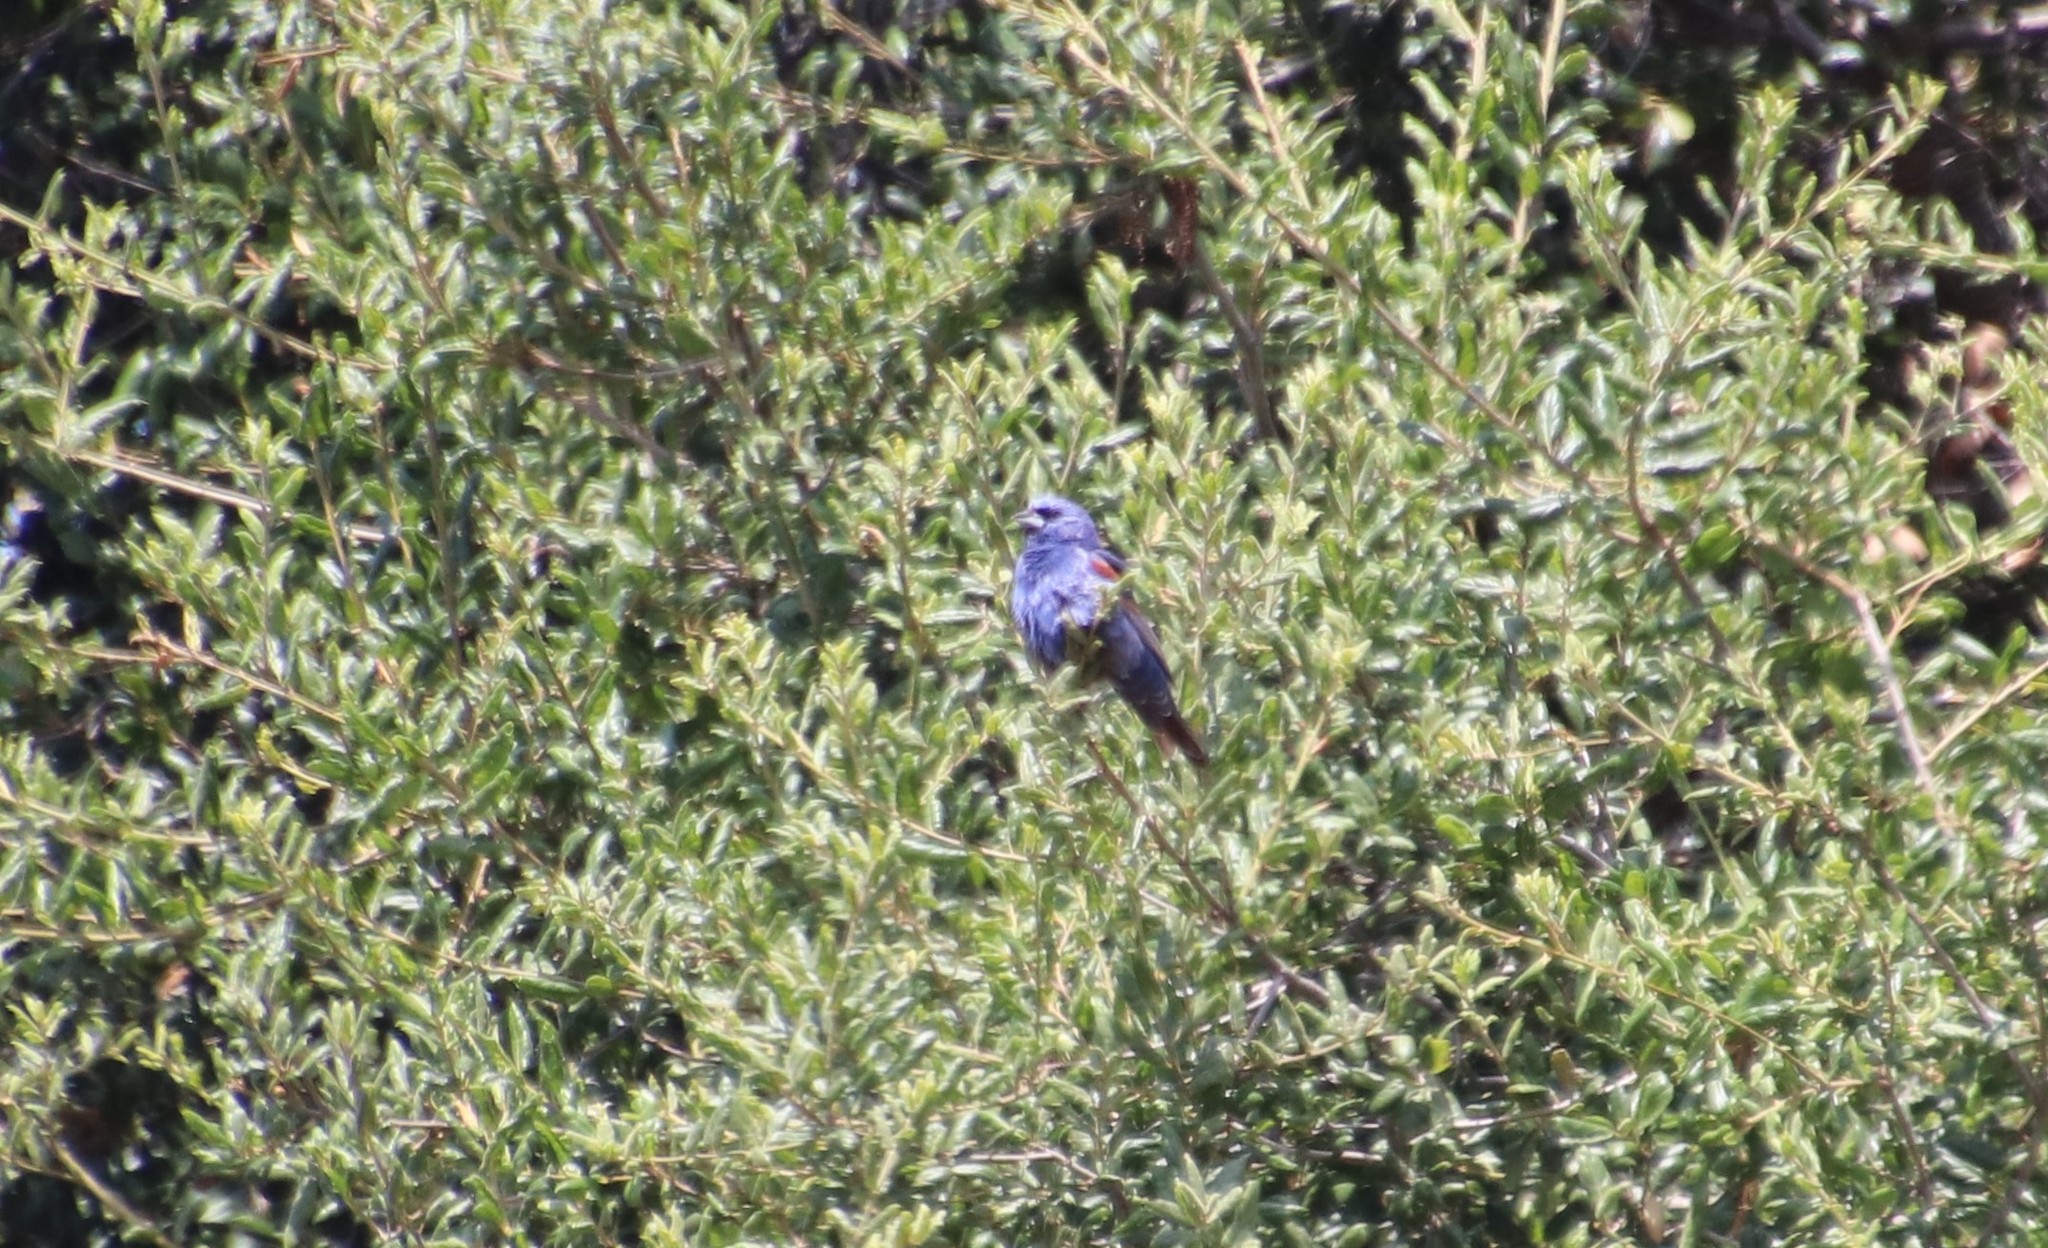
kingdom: Animalia
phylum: Chordata
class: Aves
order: Passeriformes
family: Cardinalidae
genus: Passerina
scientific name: Passerina caerulea
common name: Blue grosbeak
